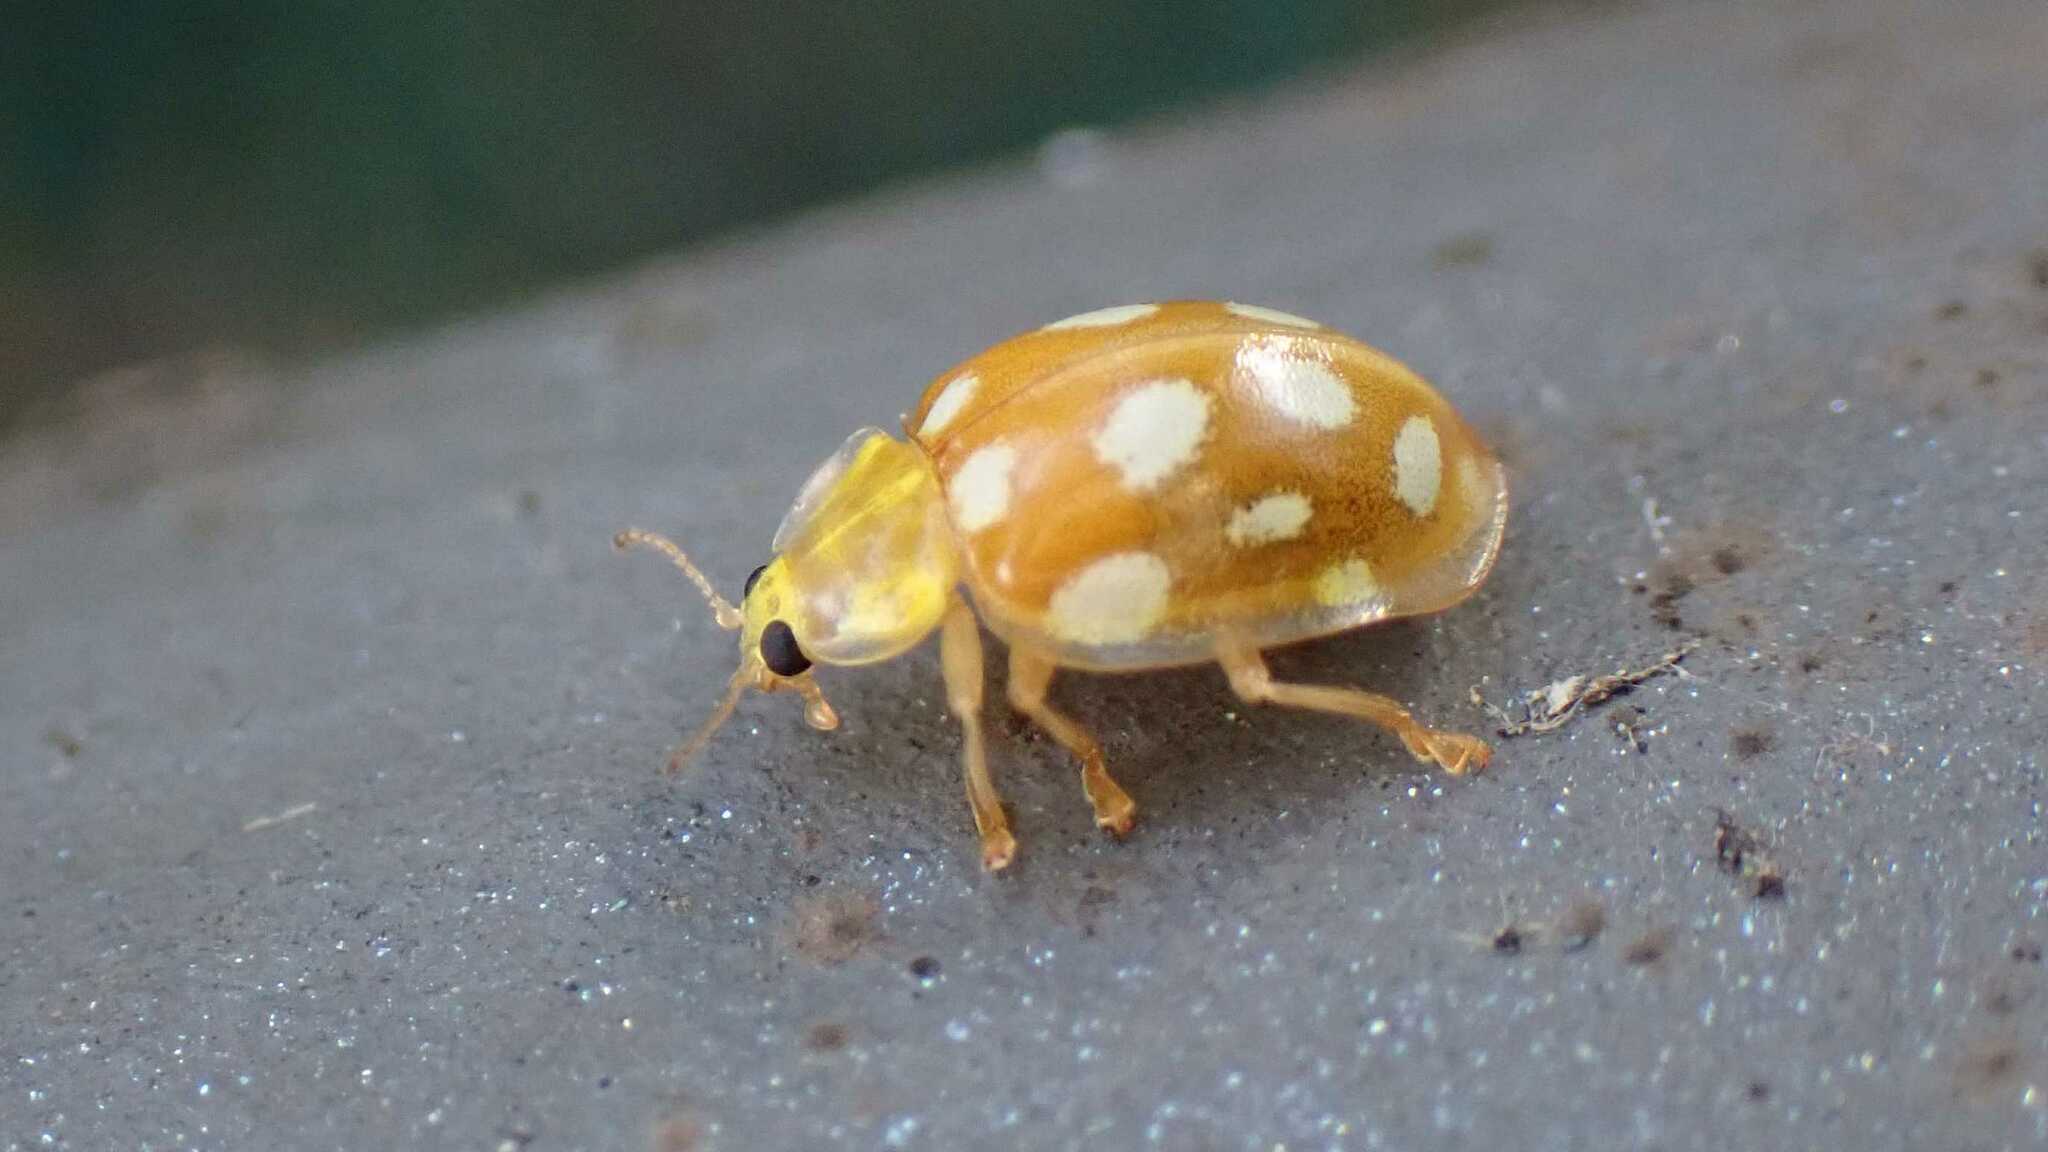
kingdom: Animalia
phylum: Arthropoda
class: Insecta
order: Coleoptera
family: Coccinellidae
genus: Halyzia
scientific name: Halyzia sedecimguttata
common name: Orange ladybird
